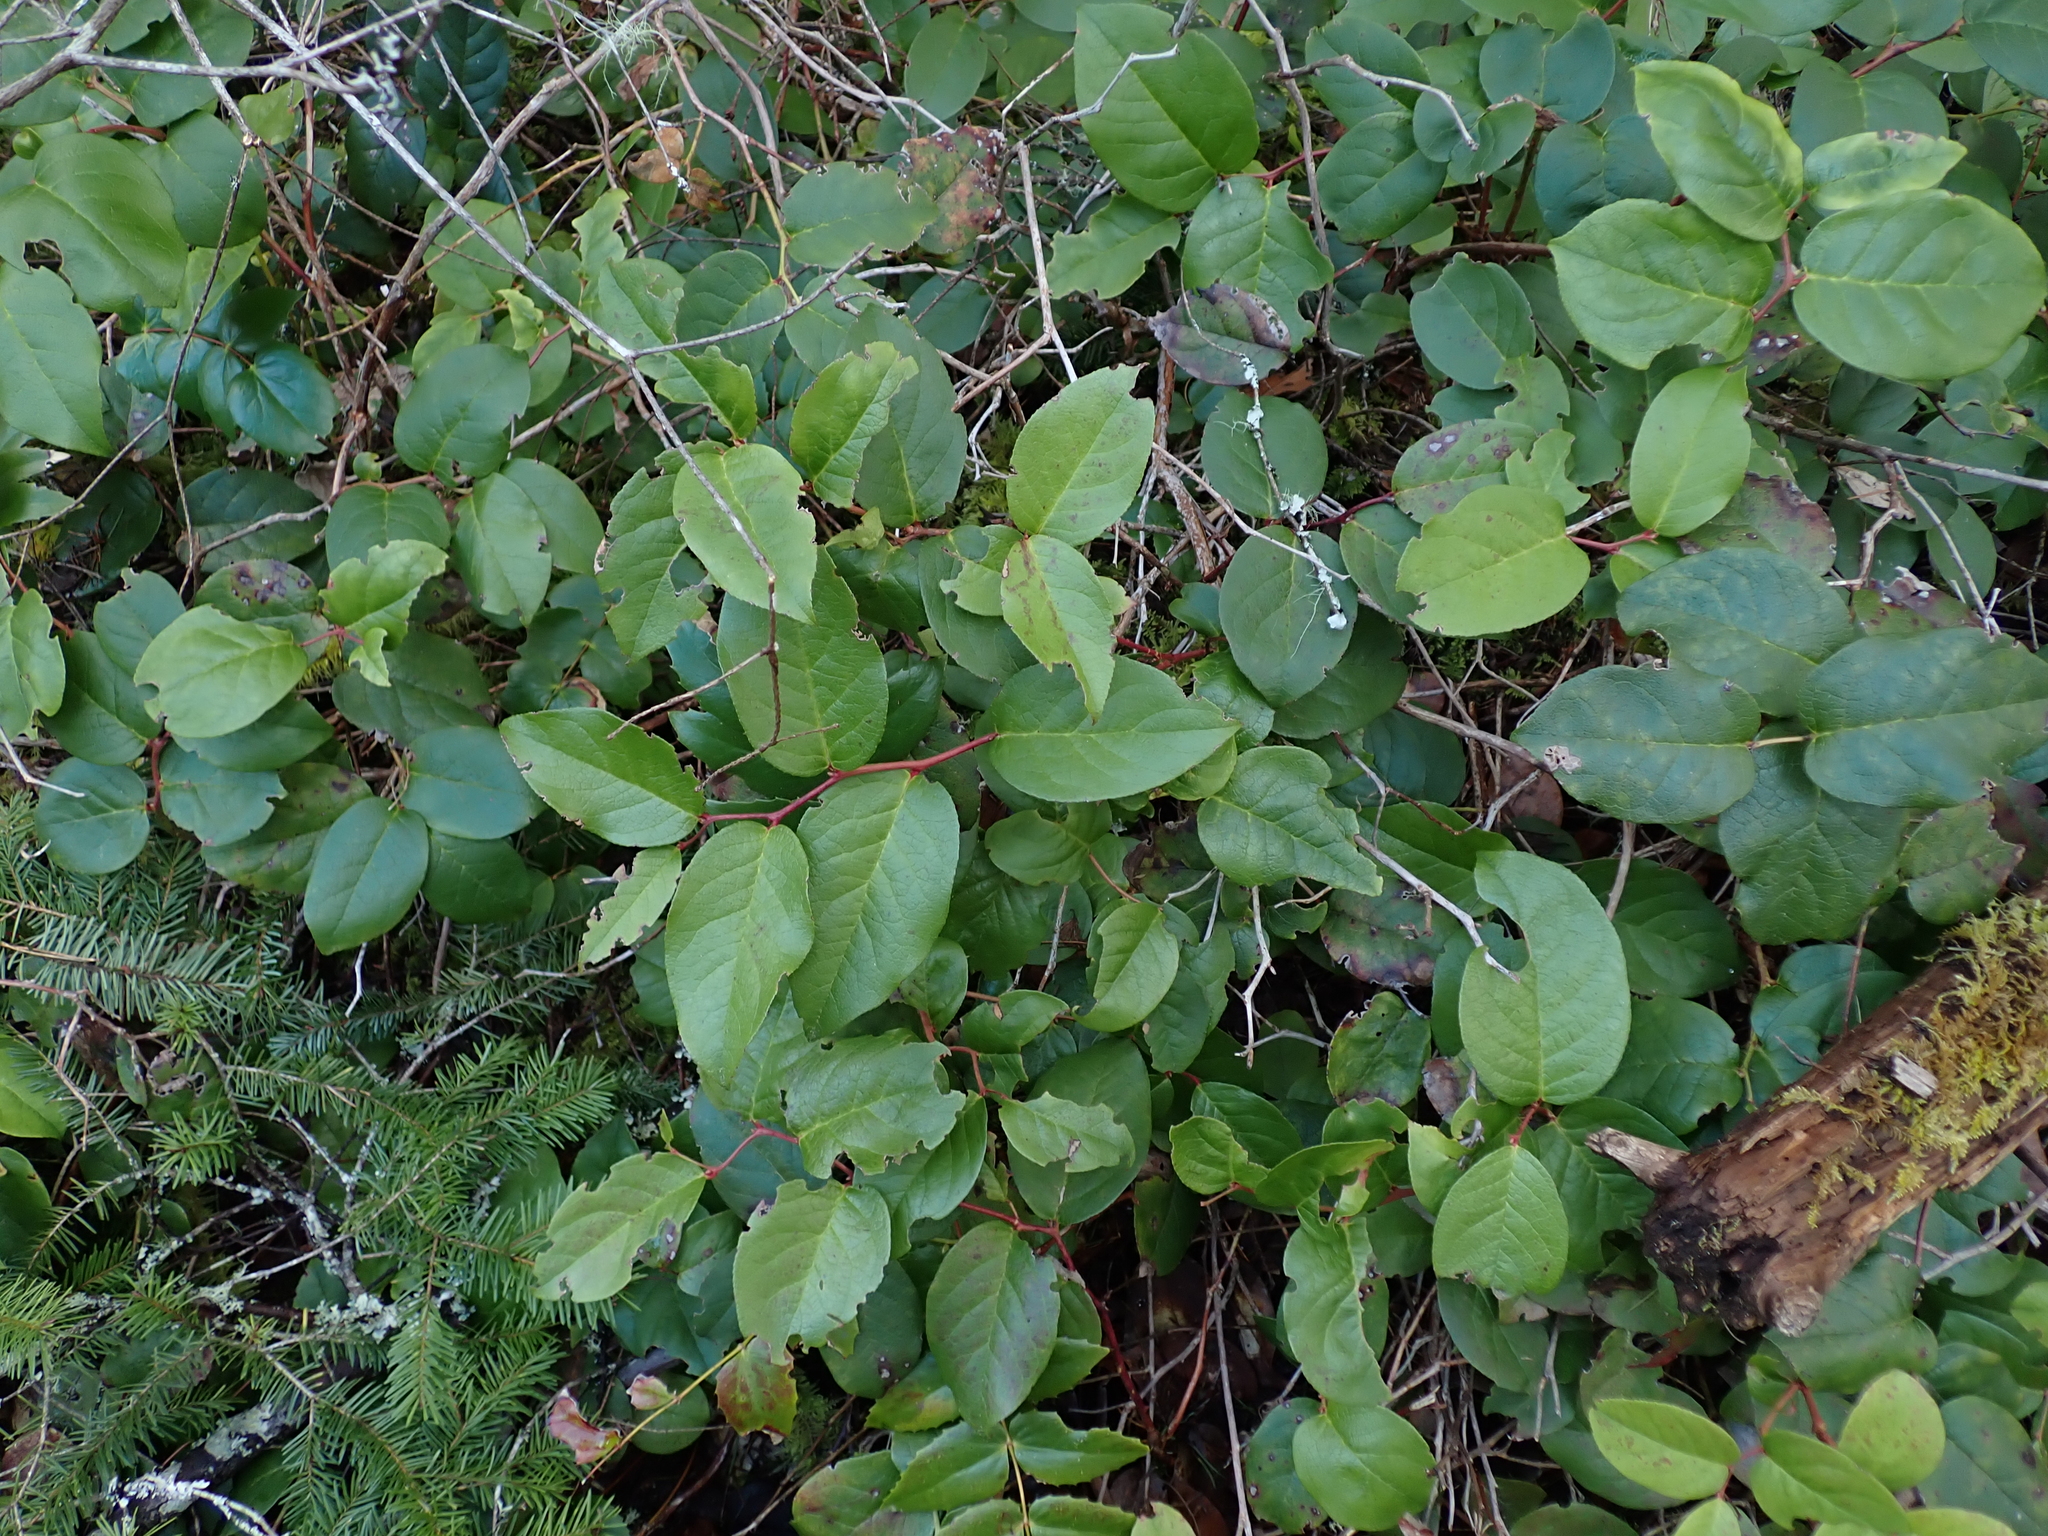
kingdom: Plantae
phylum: Tracheophyta
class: Magnoliopsida
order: Ericales
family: Ericaceae
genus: Gaultheria
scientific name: Gaultheria shallon
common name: Shallon
